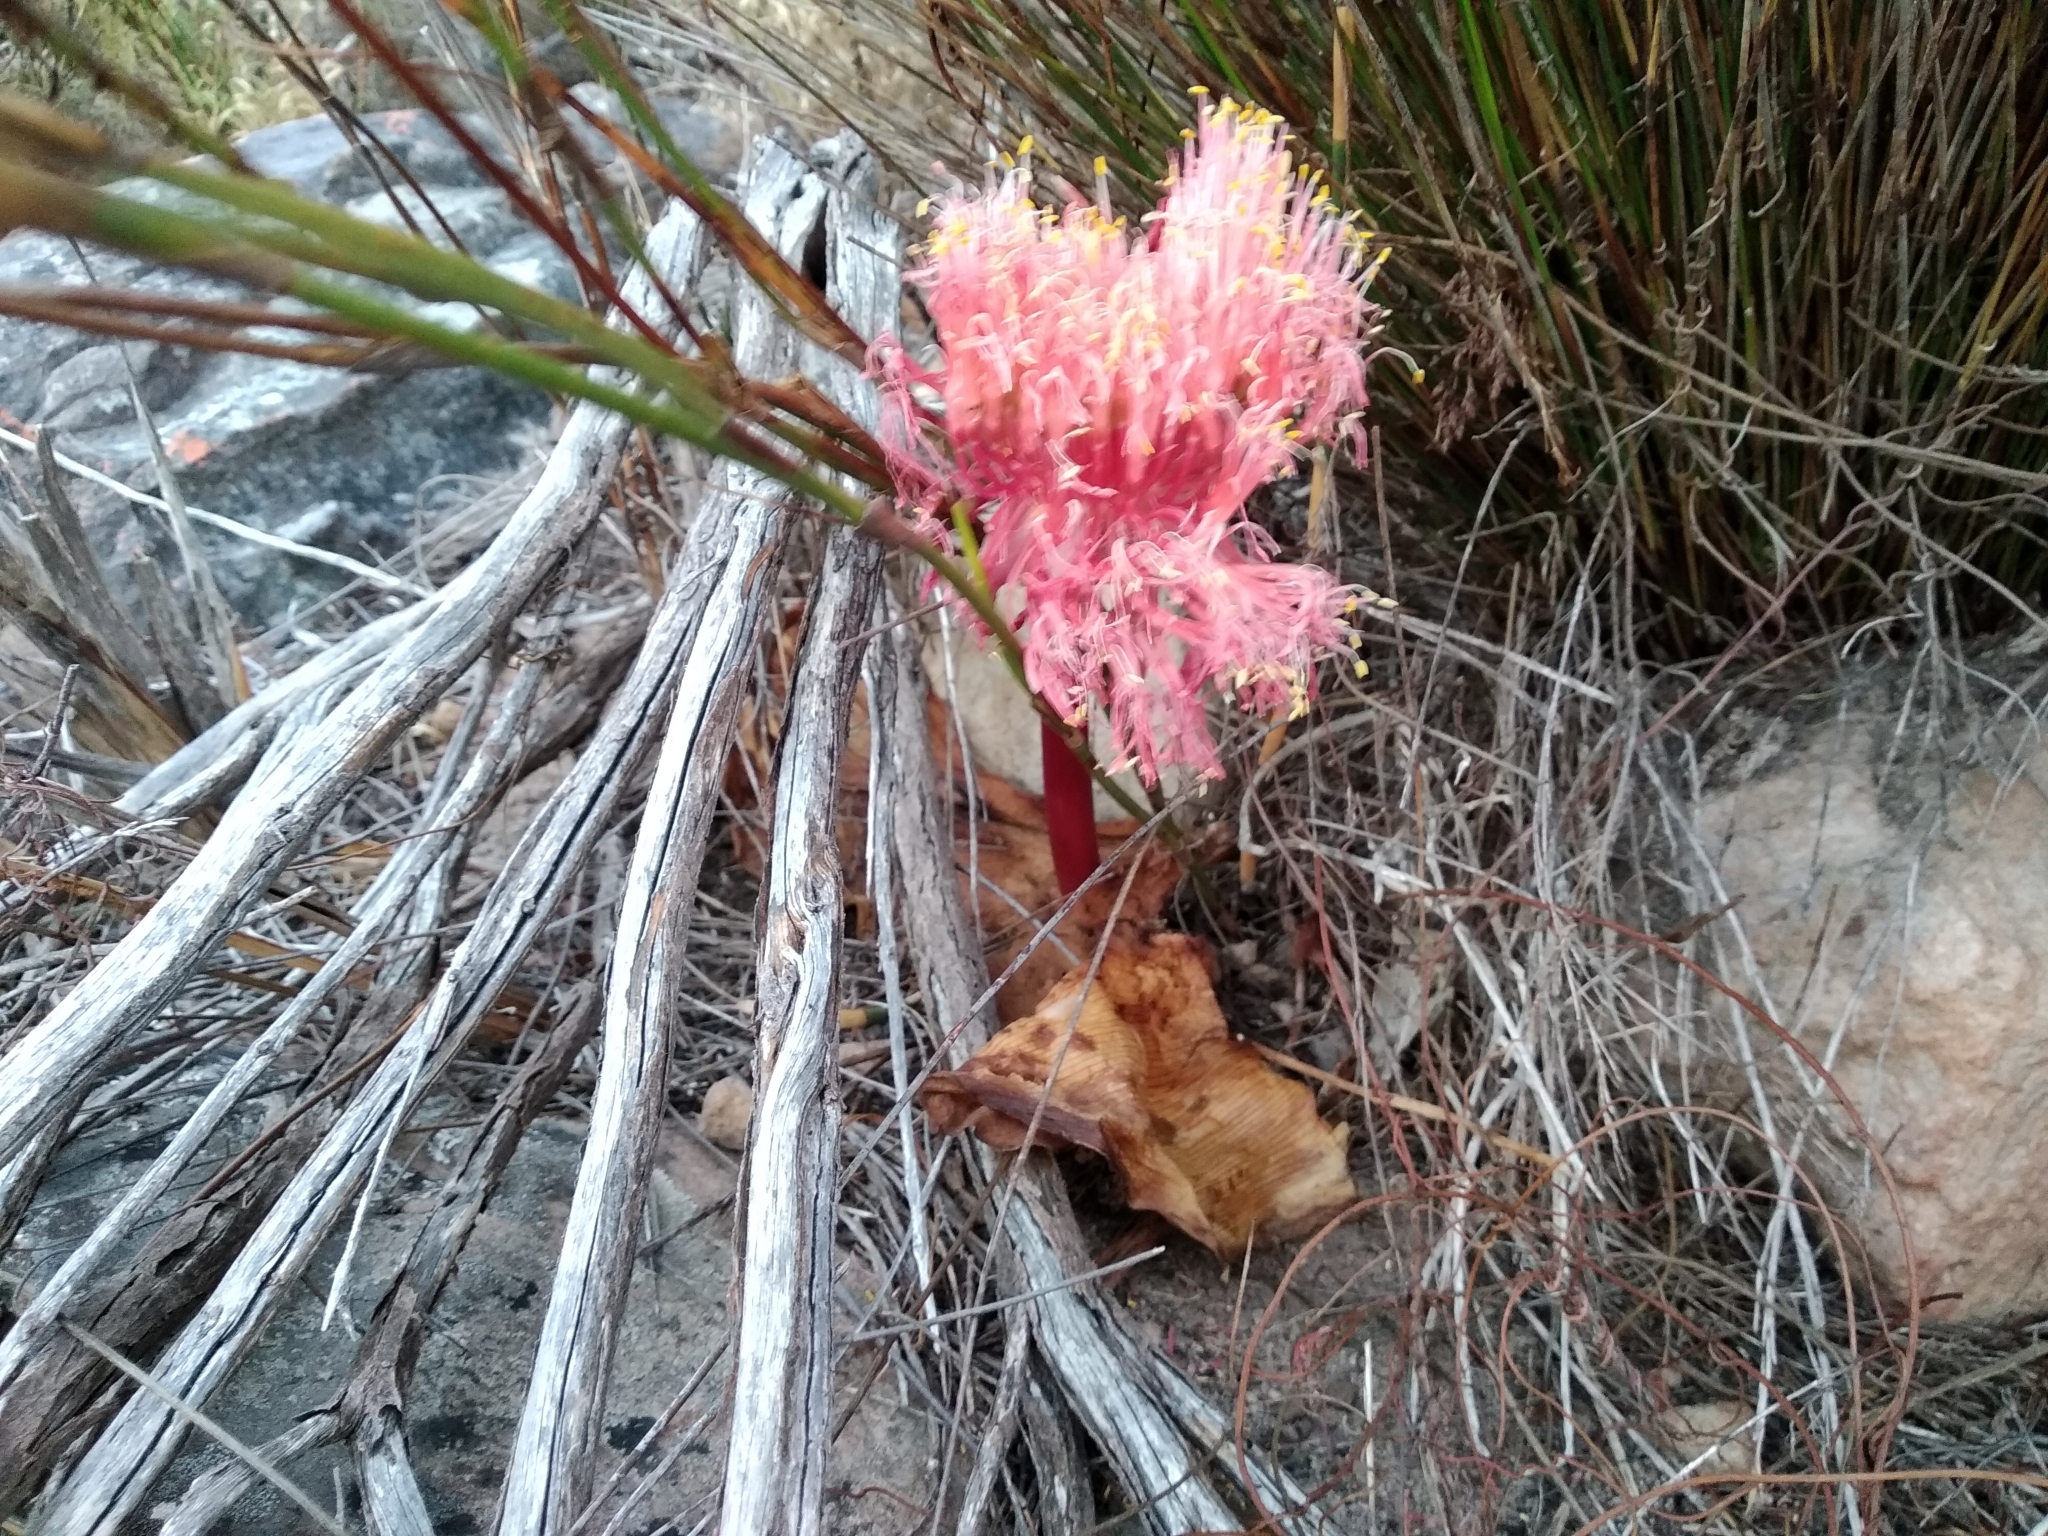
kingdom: Plantae
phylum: Tracheophyta
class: Liliopsida
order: Asparagales
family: Amaryllidaceae
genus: Haemanthus
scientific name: Haemanthus sanguineus
